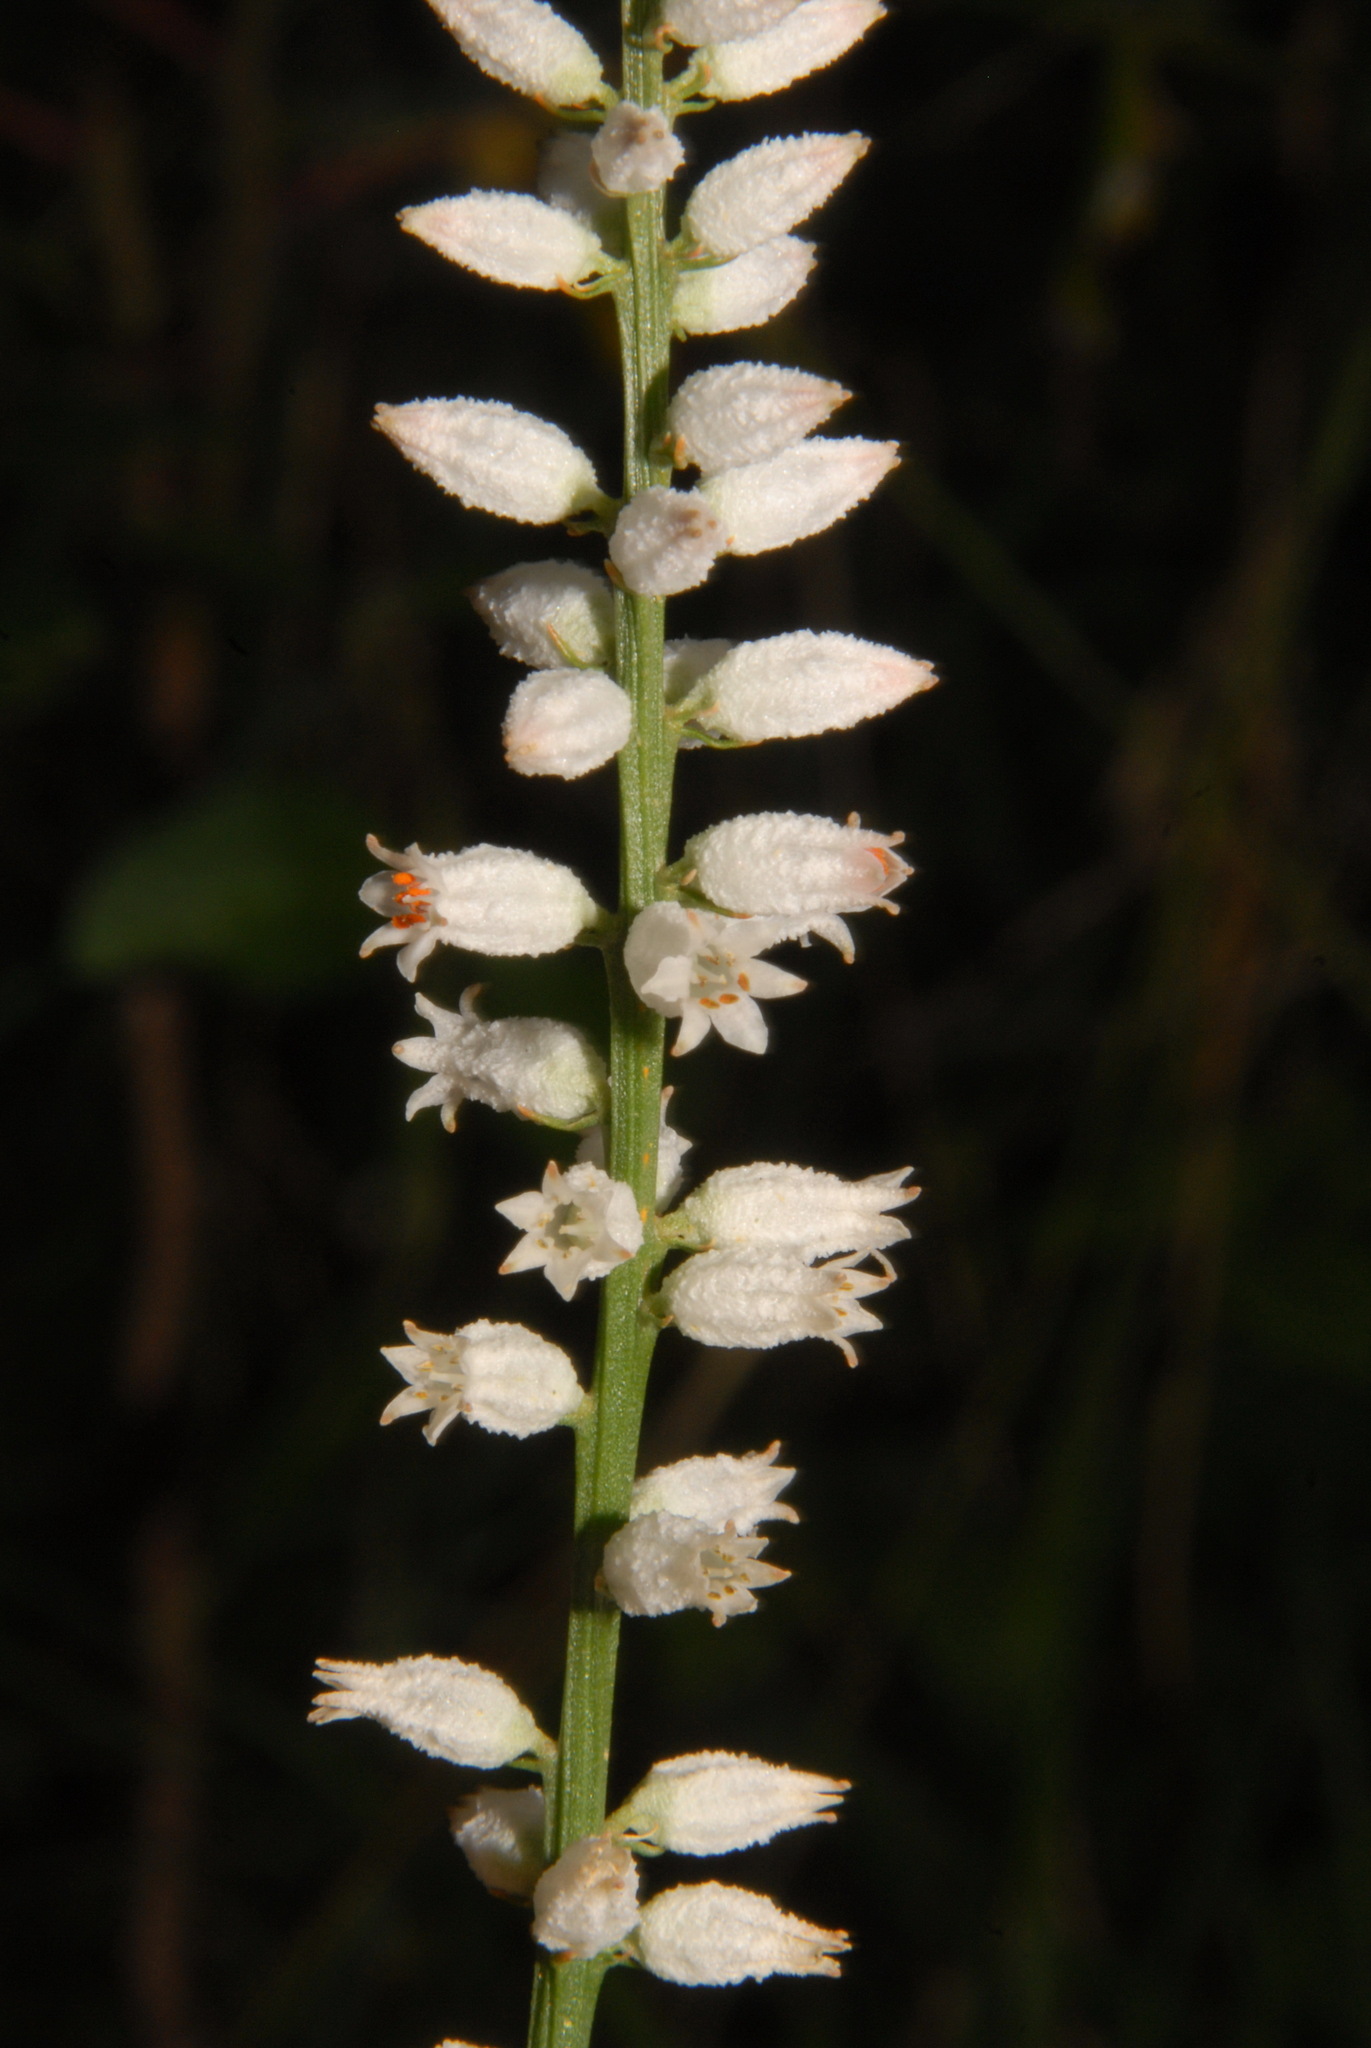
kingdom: Plantae
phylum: Tracheophyta
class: Liliopsida
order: Dioscoreales
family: Nartheciaceae
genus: Aletris
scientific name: Aletris farinosa
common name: Colicroot
